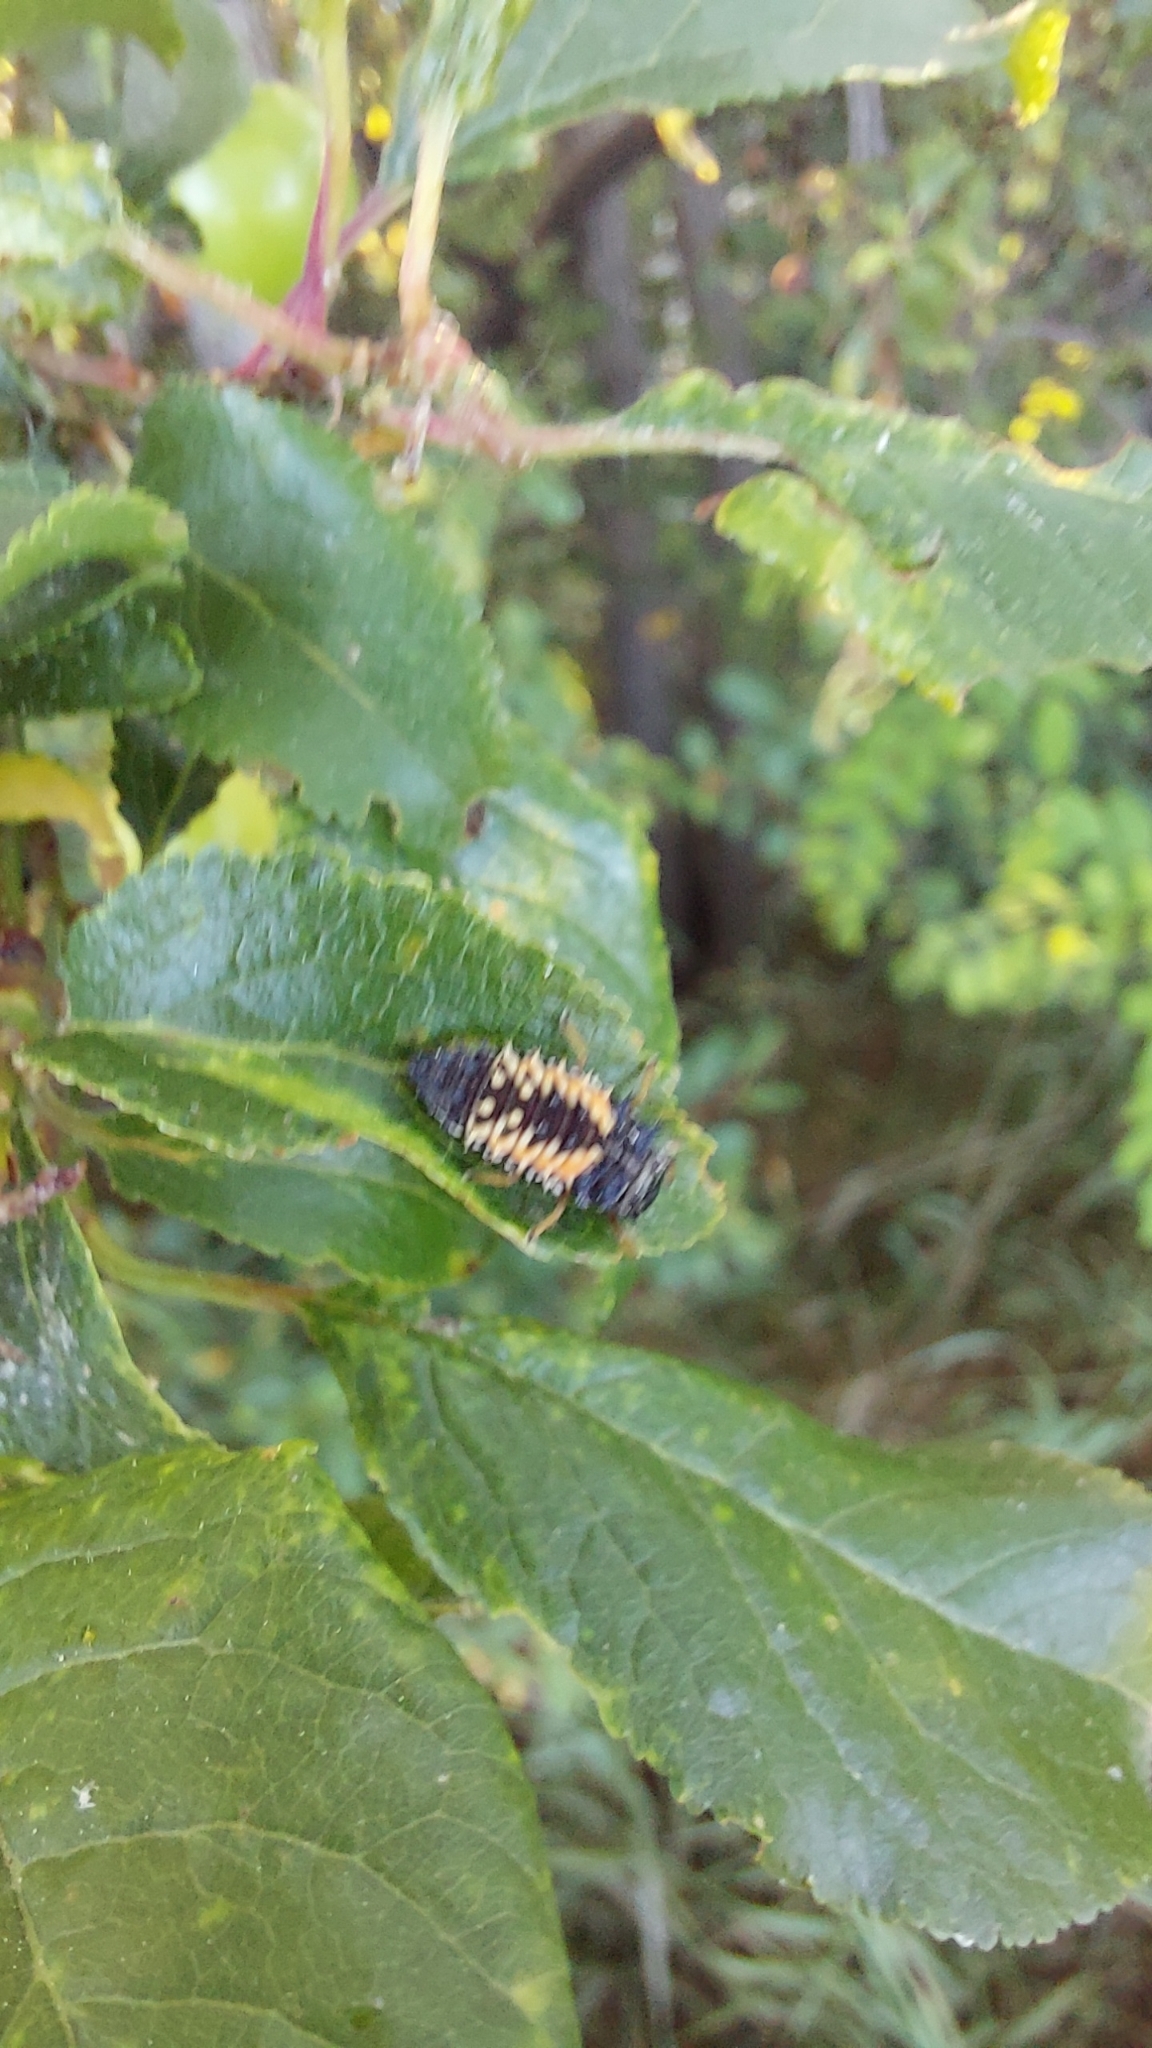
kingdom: Animalia
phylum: Arthropoda
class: Insecta
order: Coleoptera
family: Coccinellidae
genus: Harmonia
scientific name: Harmonia axyridis
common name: Harlequin ladybird
